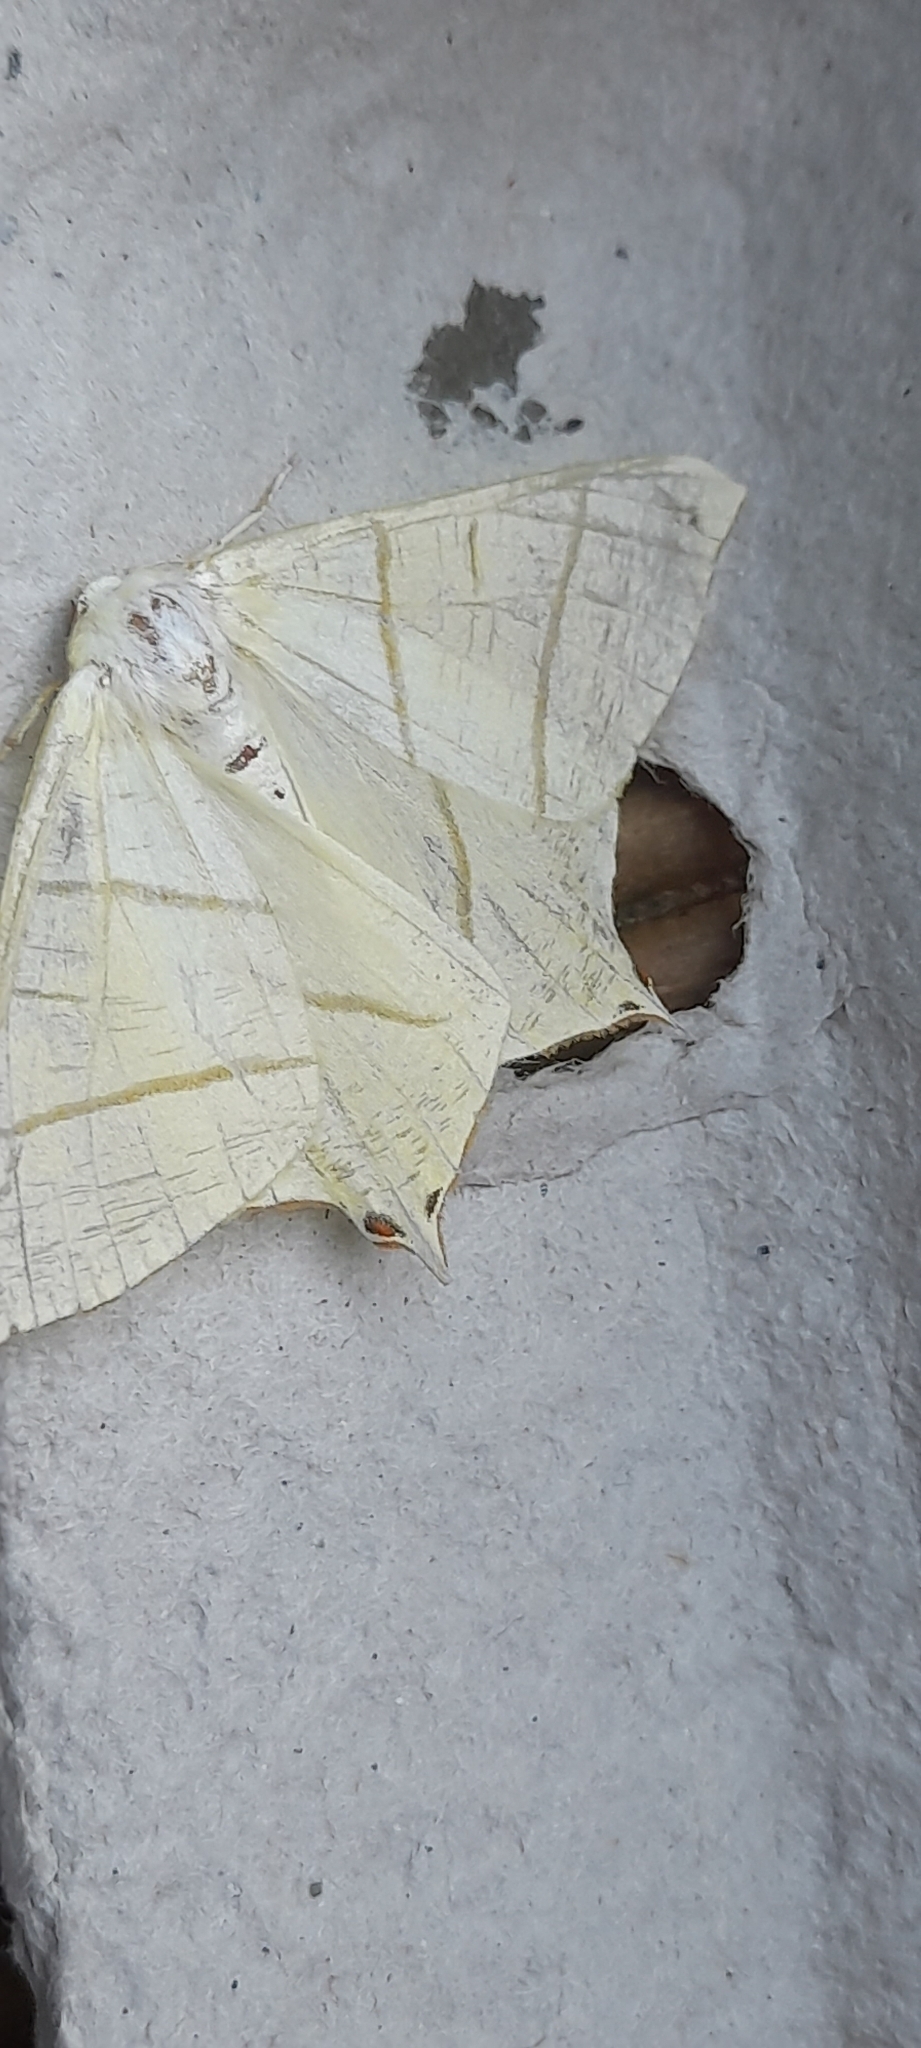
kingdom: Animalia
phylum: Arthropoda
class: Insecta
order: Lepidoptera
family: Geometridae
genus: Ourapteryx
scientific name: Ourapteryx sambucaria
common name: Swallow-tailed moth
